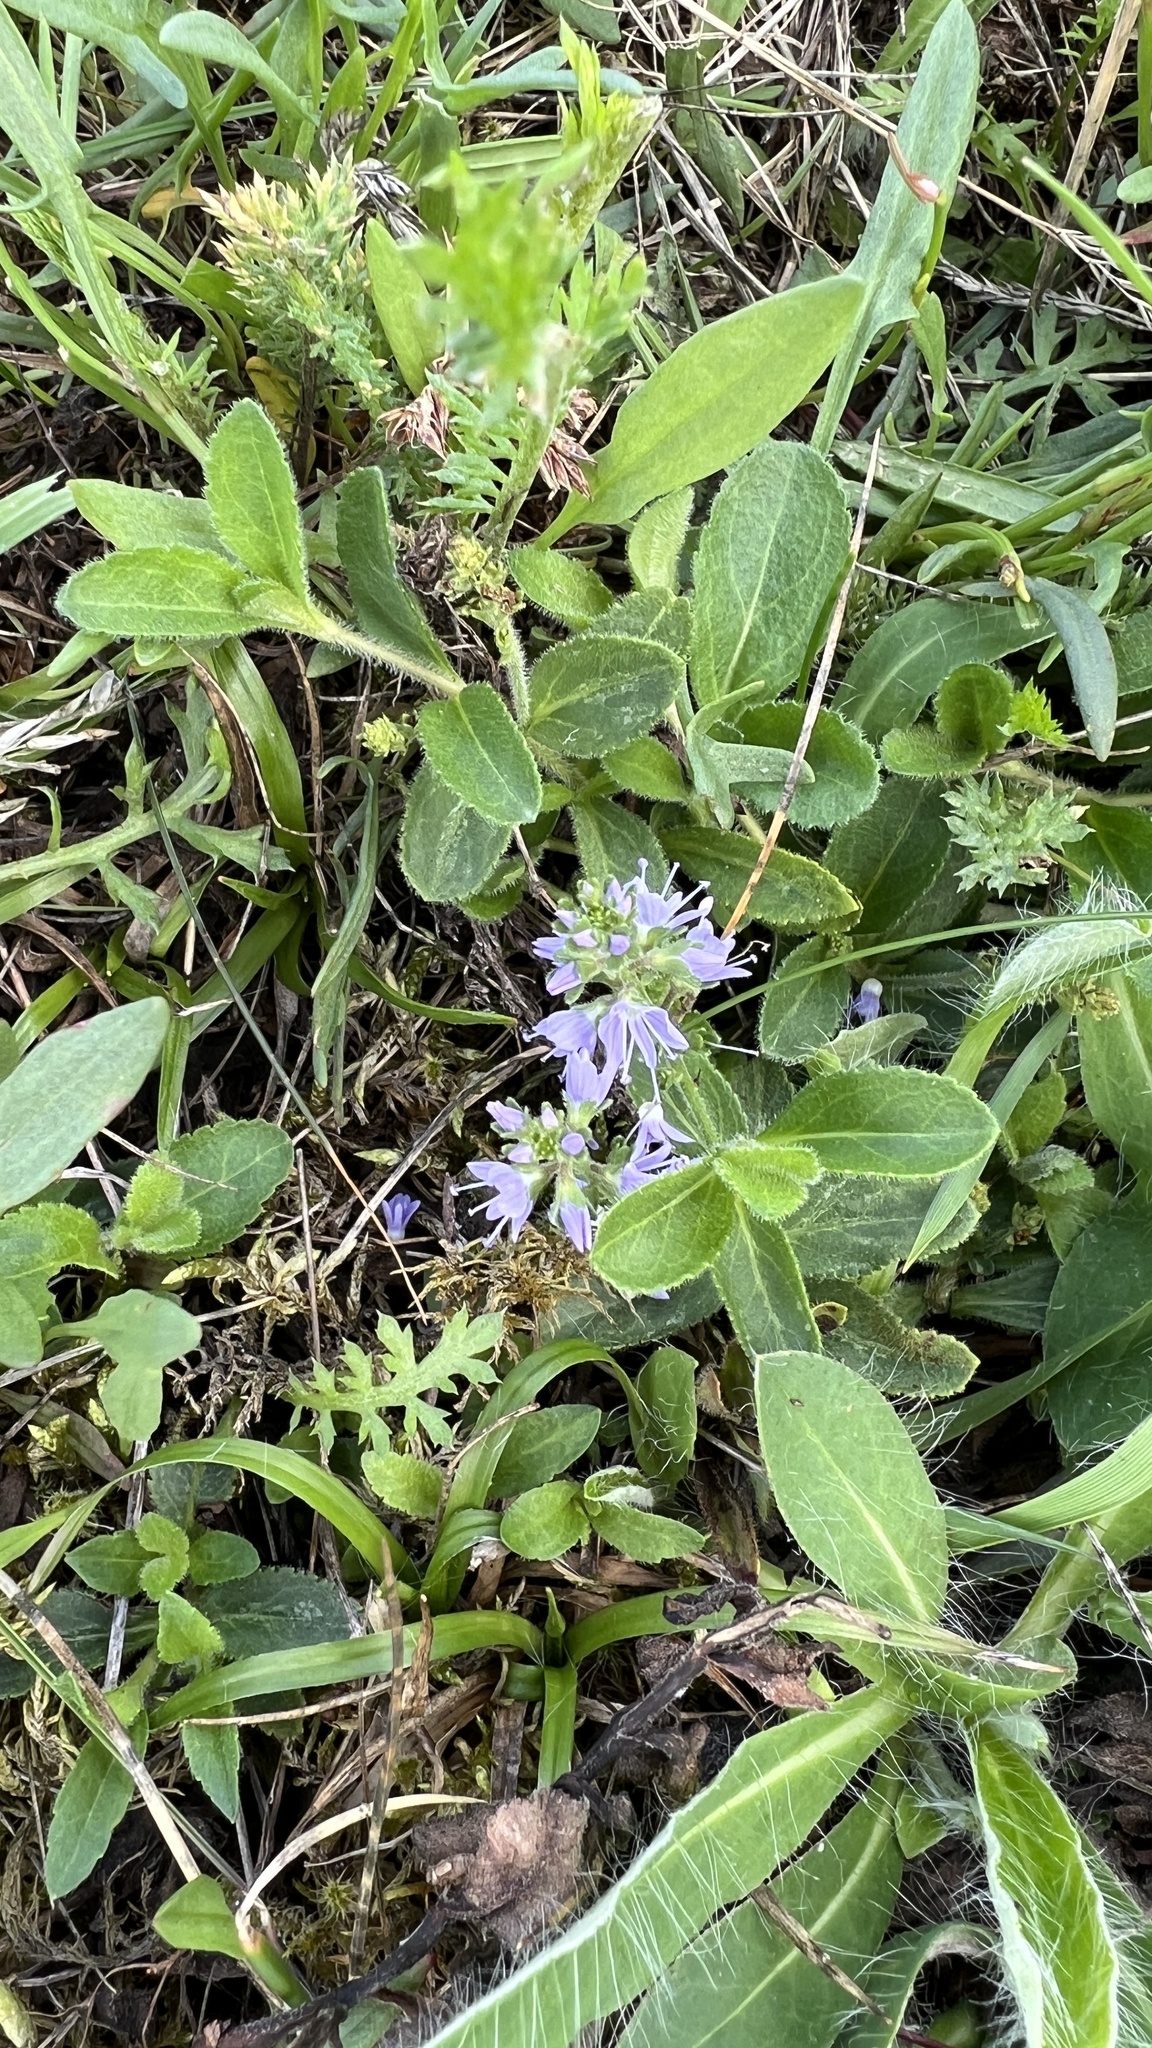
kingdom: Plantae
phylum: Tracheophyta
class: Magnoliopsida
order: Lamiales
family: Plantaginaceae
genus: Veronica
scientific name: Veronica officinalis
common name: Common speedwell
